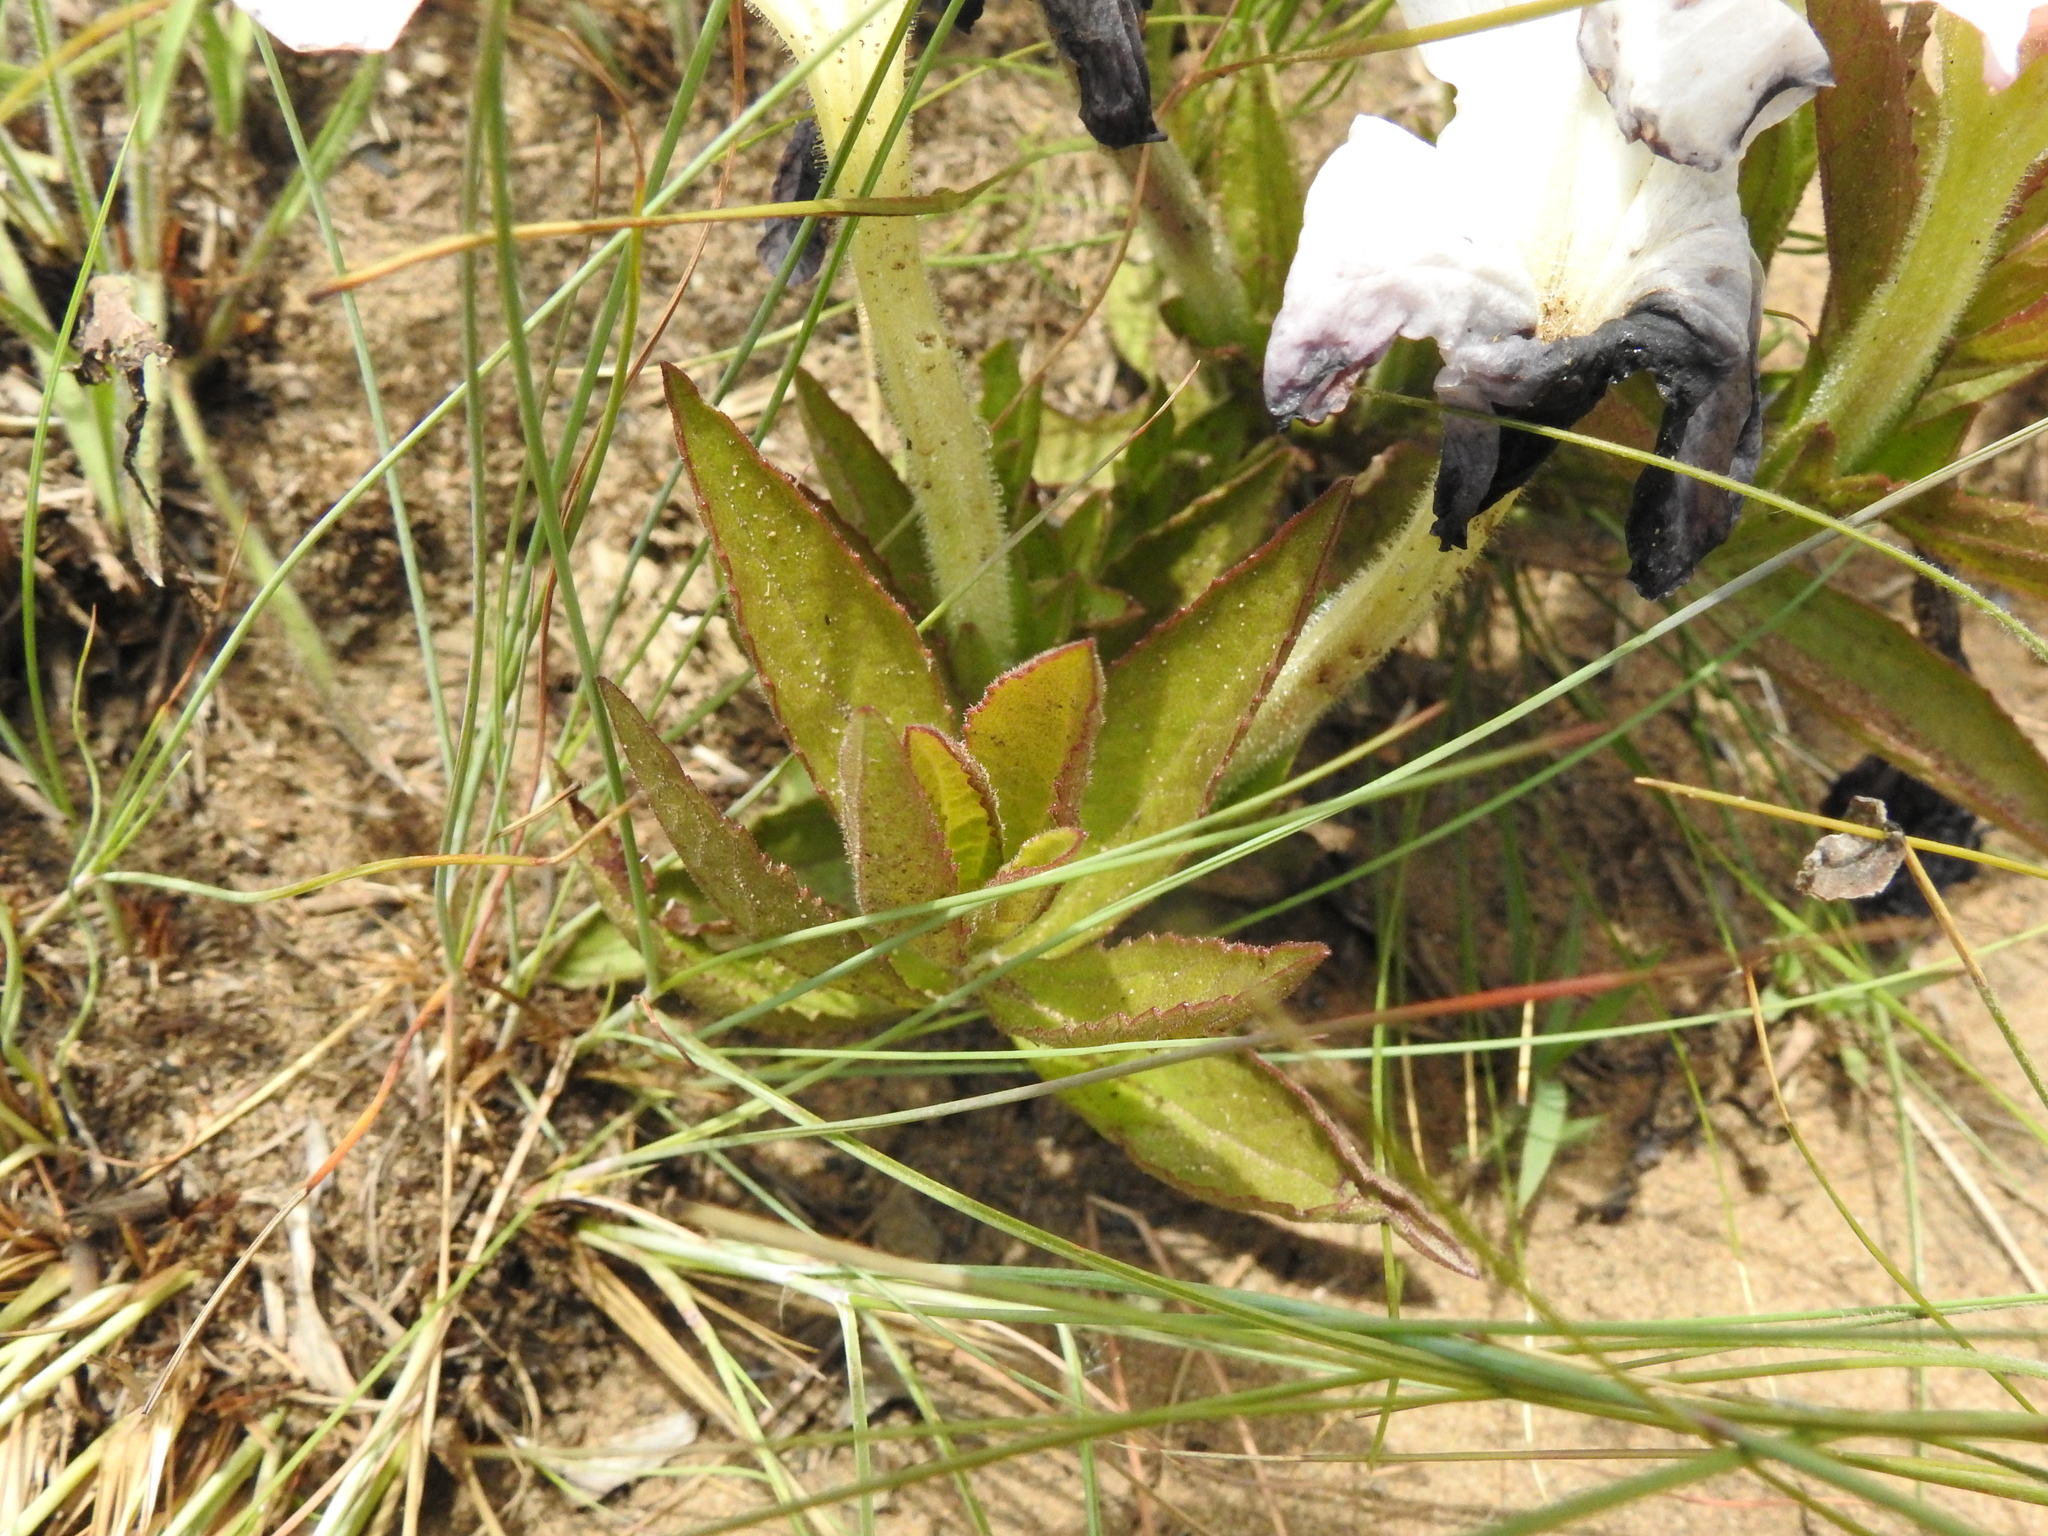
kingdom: Plantae
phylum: Tracheophyta
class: Magnoliopsida
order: Lamiales
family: Orobanchaceae
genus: Cycnium
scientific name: Cycnium adonense
